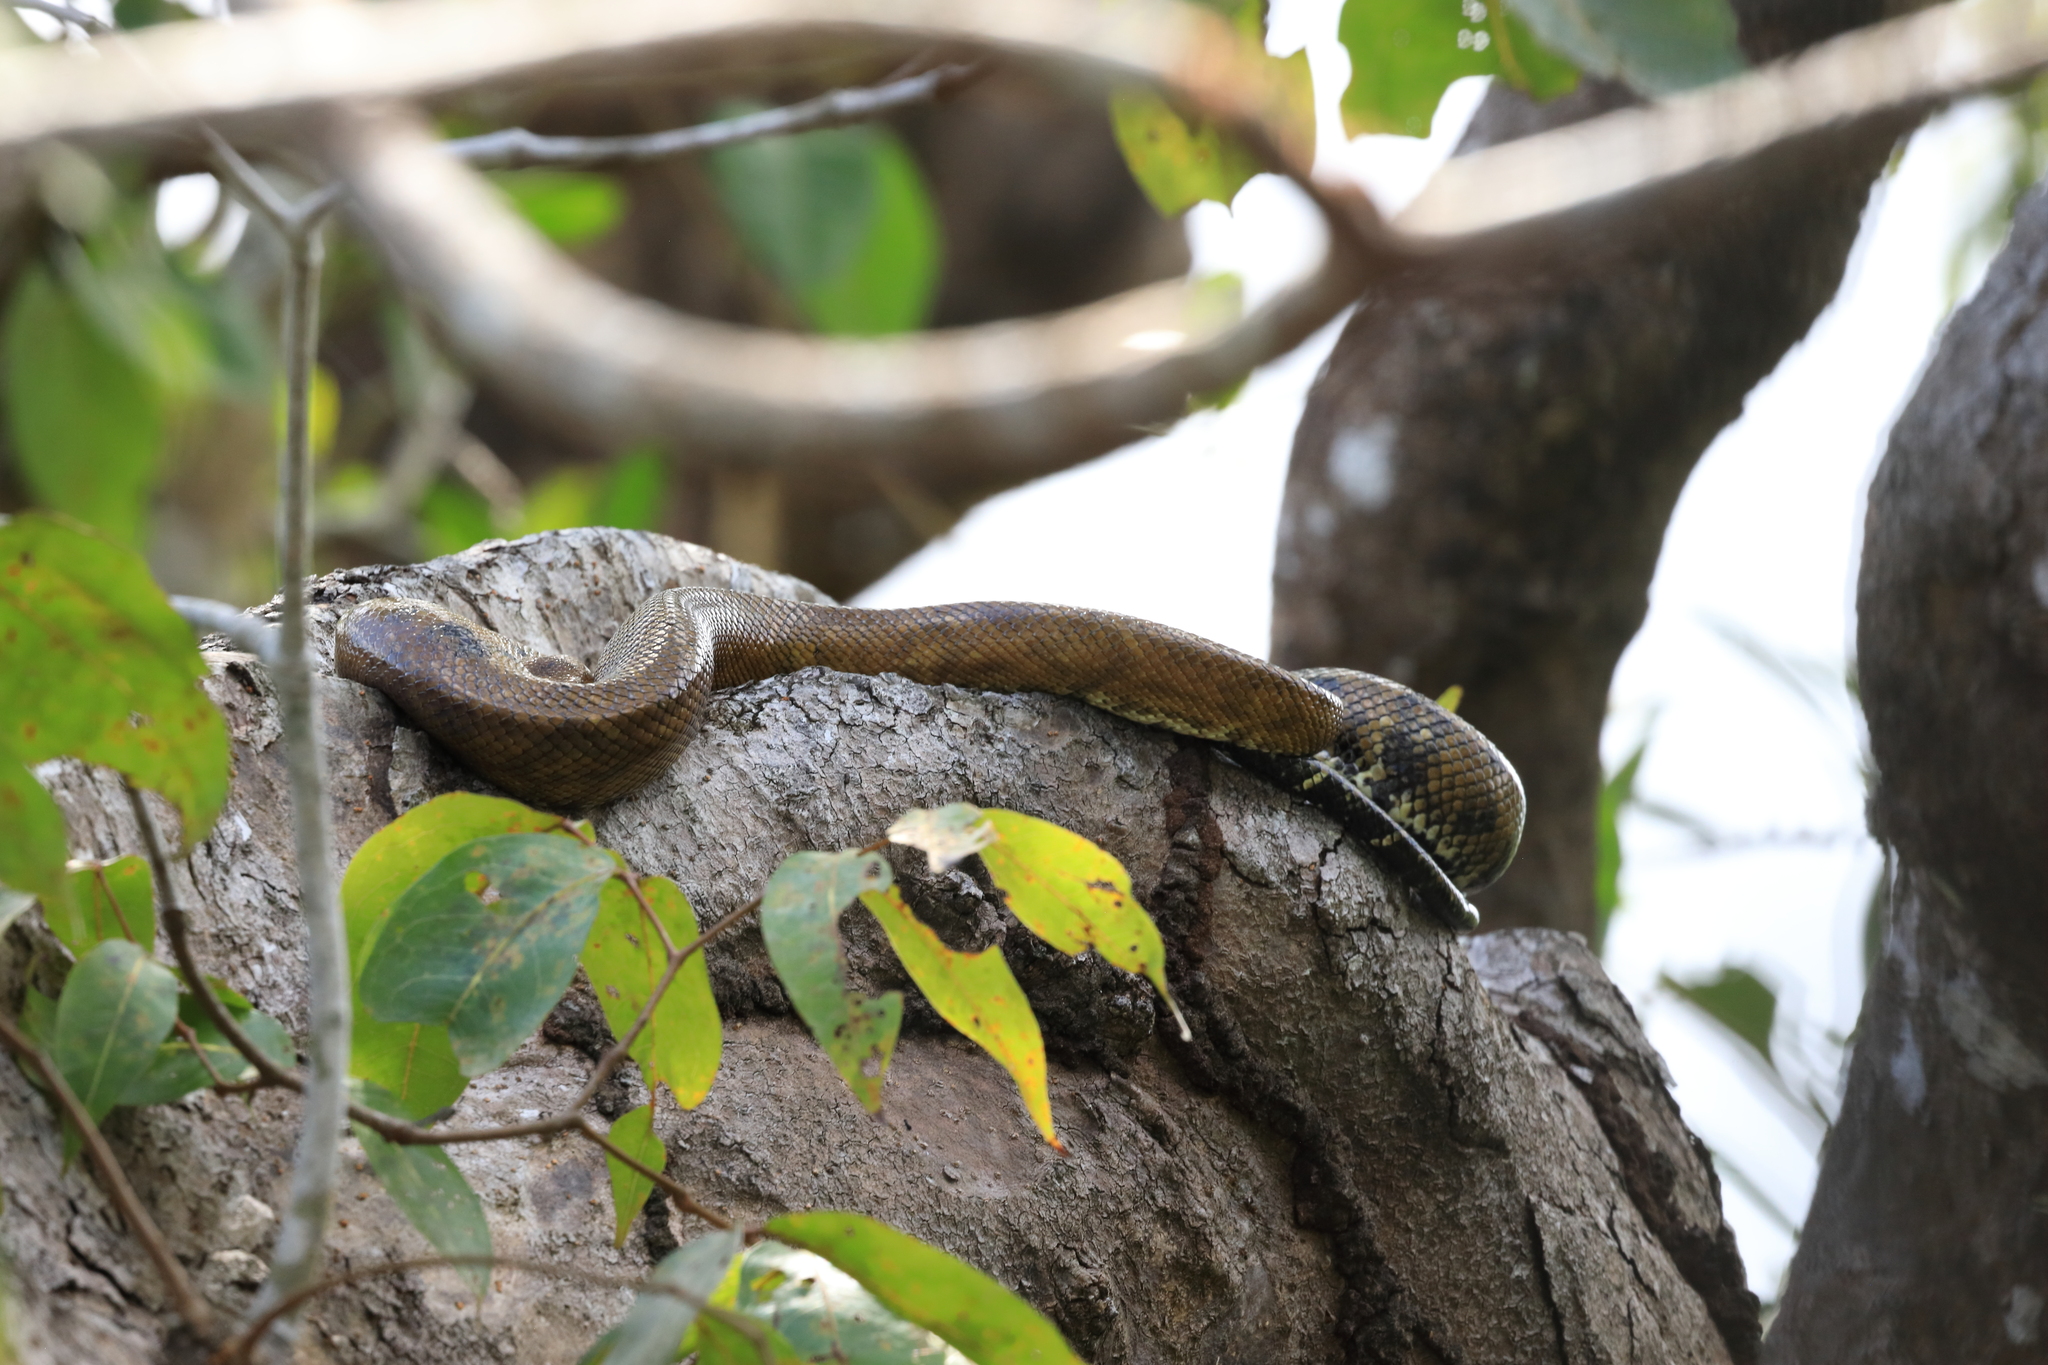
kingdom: Animalia
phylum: Chordata
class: Squamata
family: Boidae
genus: Corallus
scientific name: Corallus ruschenbergerii
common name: Dormilona
